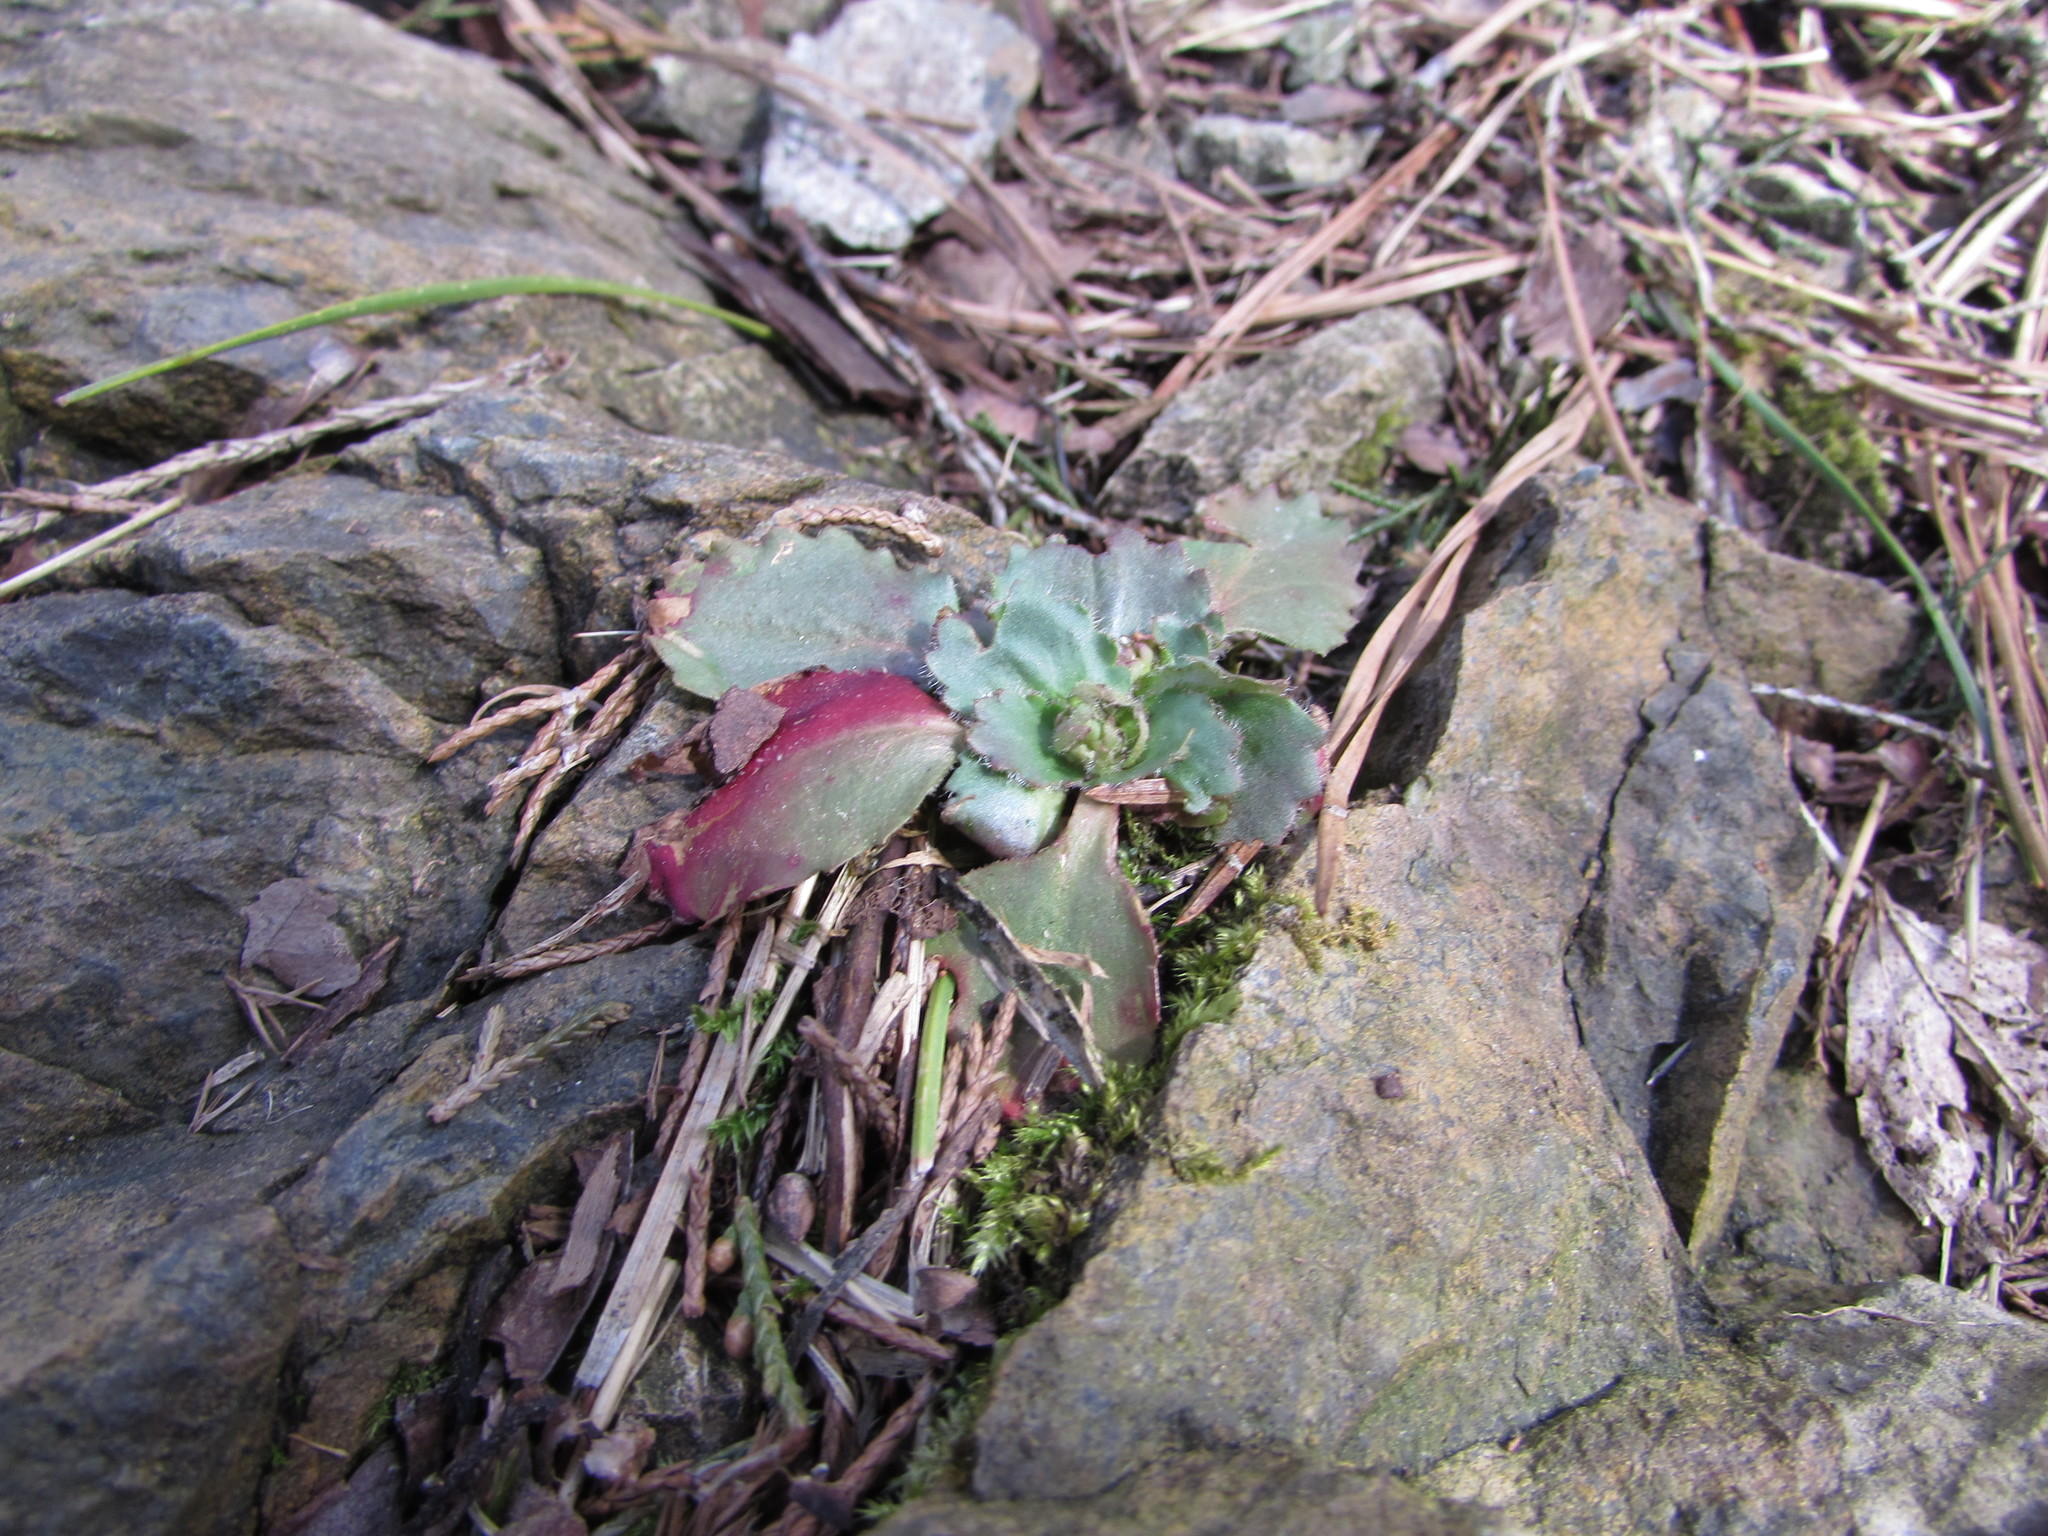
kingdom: Plantae
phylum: Tracheophyta
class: Magnoliopsida
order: Saxifragales
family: Saxifragaceae
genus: Micranthes
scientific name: Micranthes virginiensis
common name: Early saxifrage
